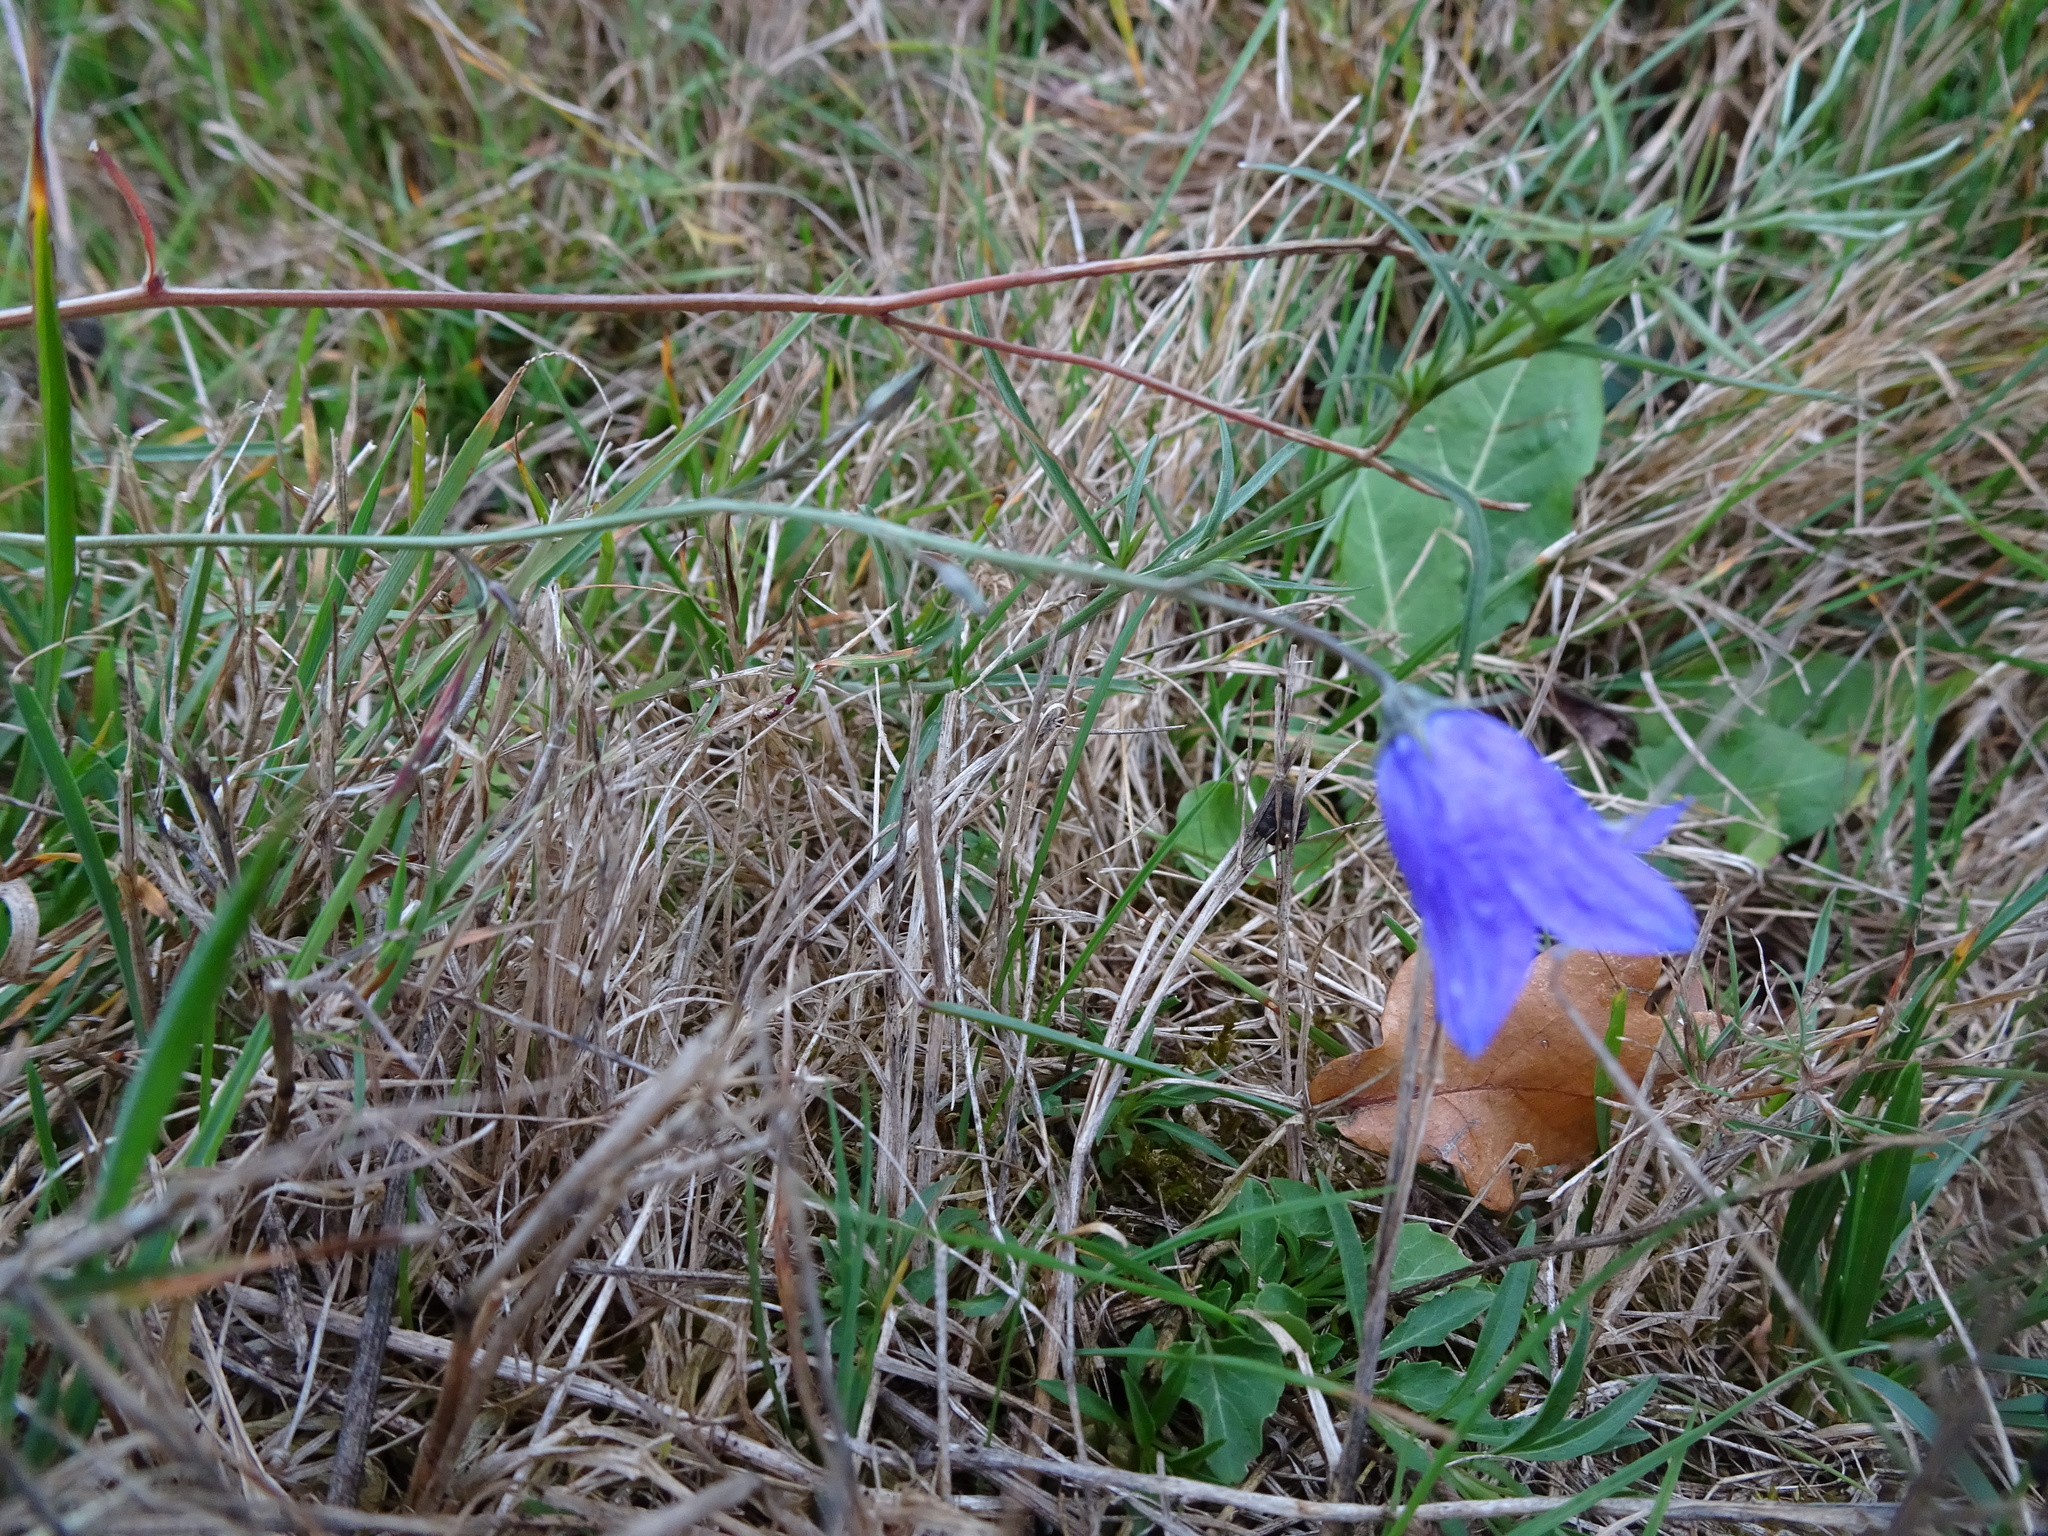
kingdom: Plantae
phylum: Tracheophyta
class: Magnoliopsida
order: Asterales
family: Campanulaceae
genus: Campanula
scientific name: Campanula rotundifolia
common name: Harebell
